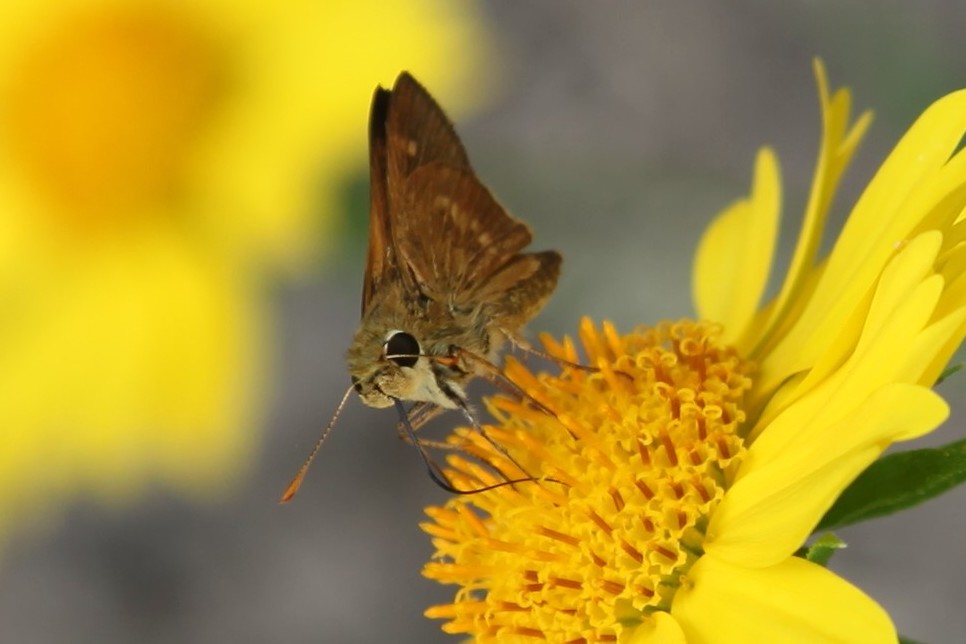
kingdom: Animalia
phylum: Arthropoda
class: Insecta
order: Lepidoptera
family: Hesperiidae
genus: Polites
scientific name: Polites otho
